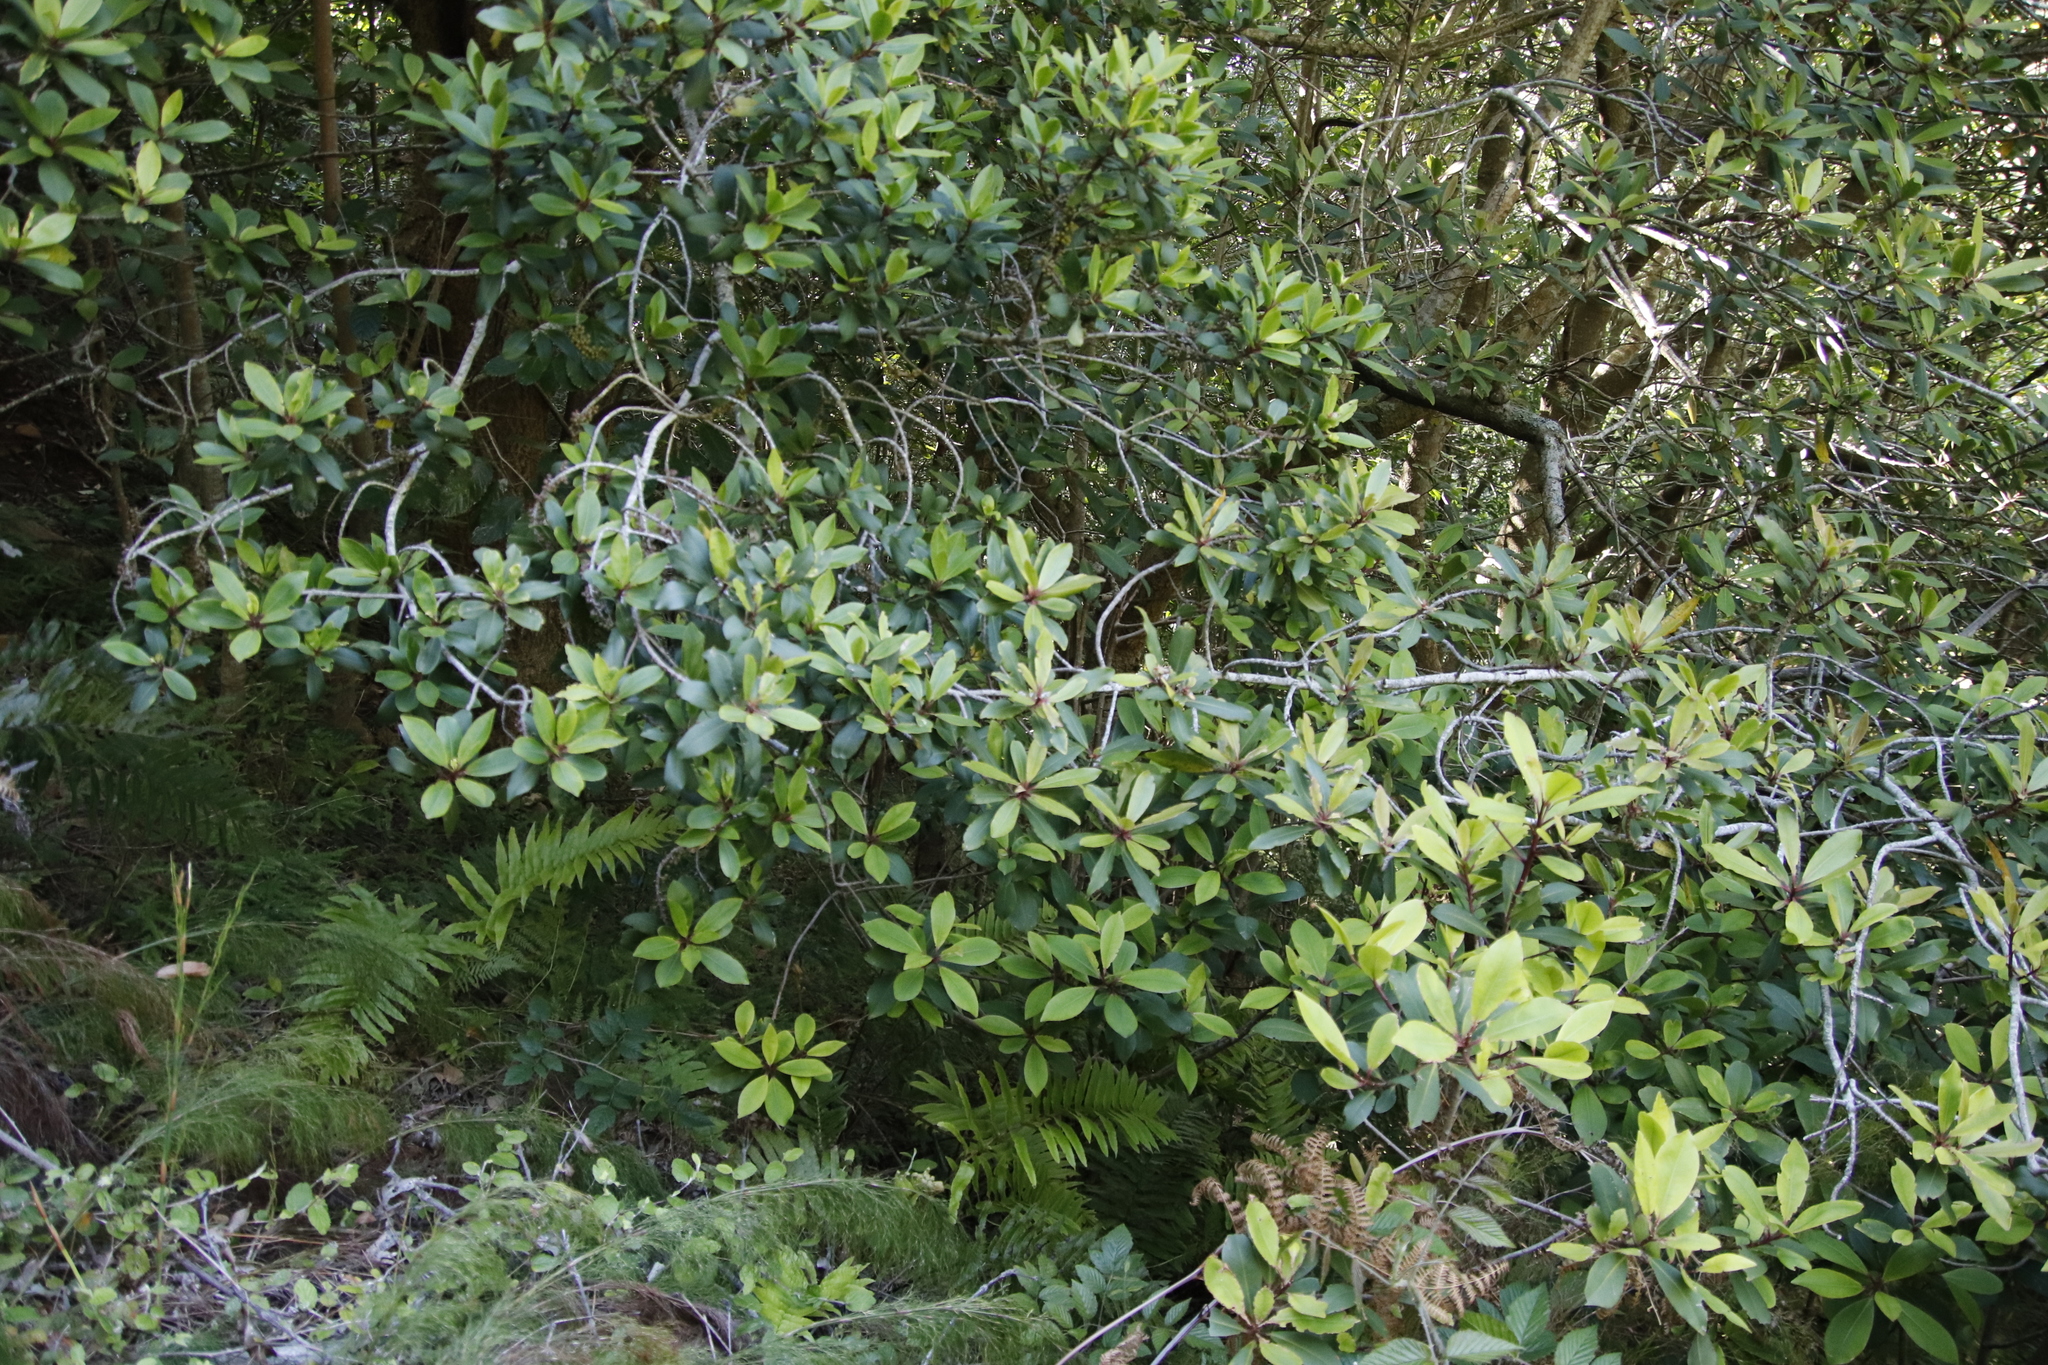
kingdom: Plantae
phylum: Tracheophyta
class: Magnoliopsida
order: Ericales
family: Primulaceae
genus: Myrsine
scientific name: Myrsine melanophloeos
